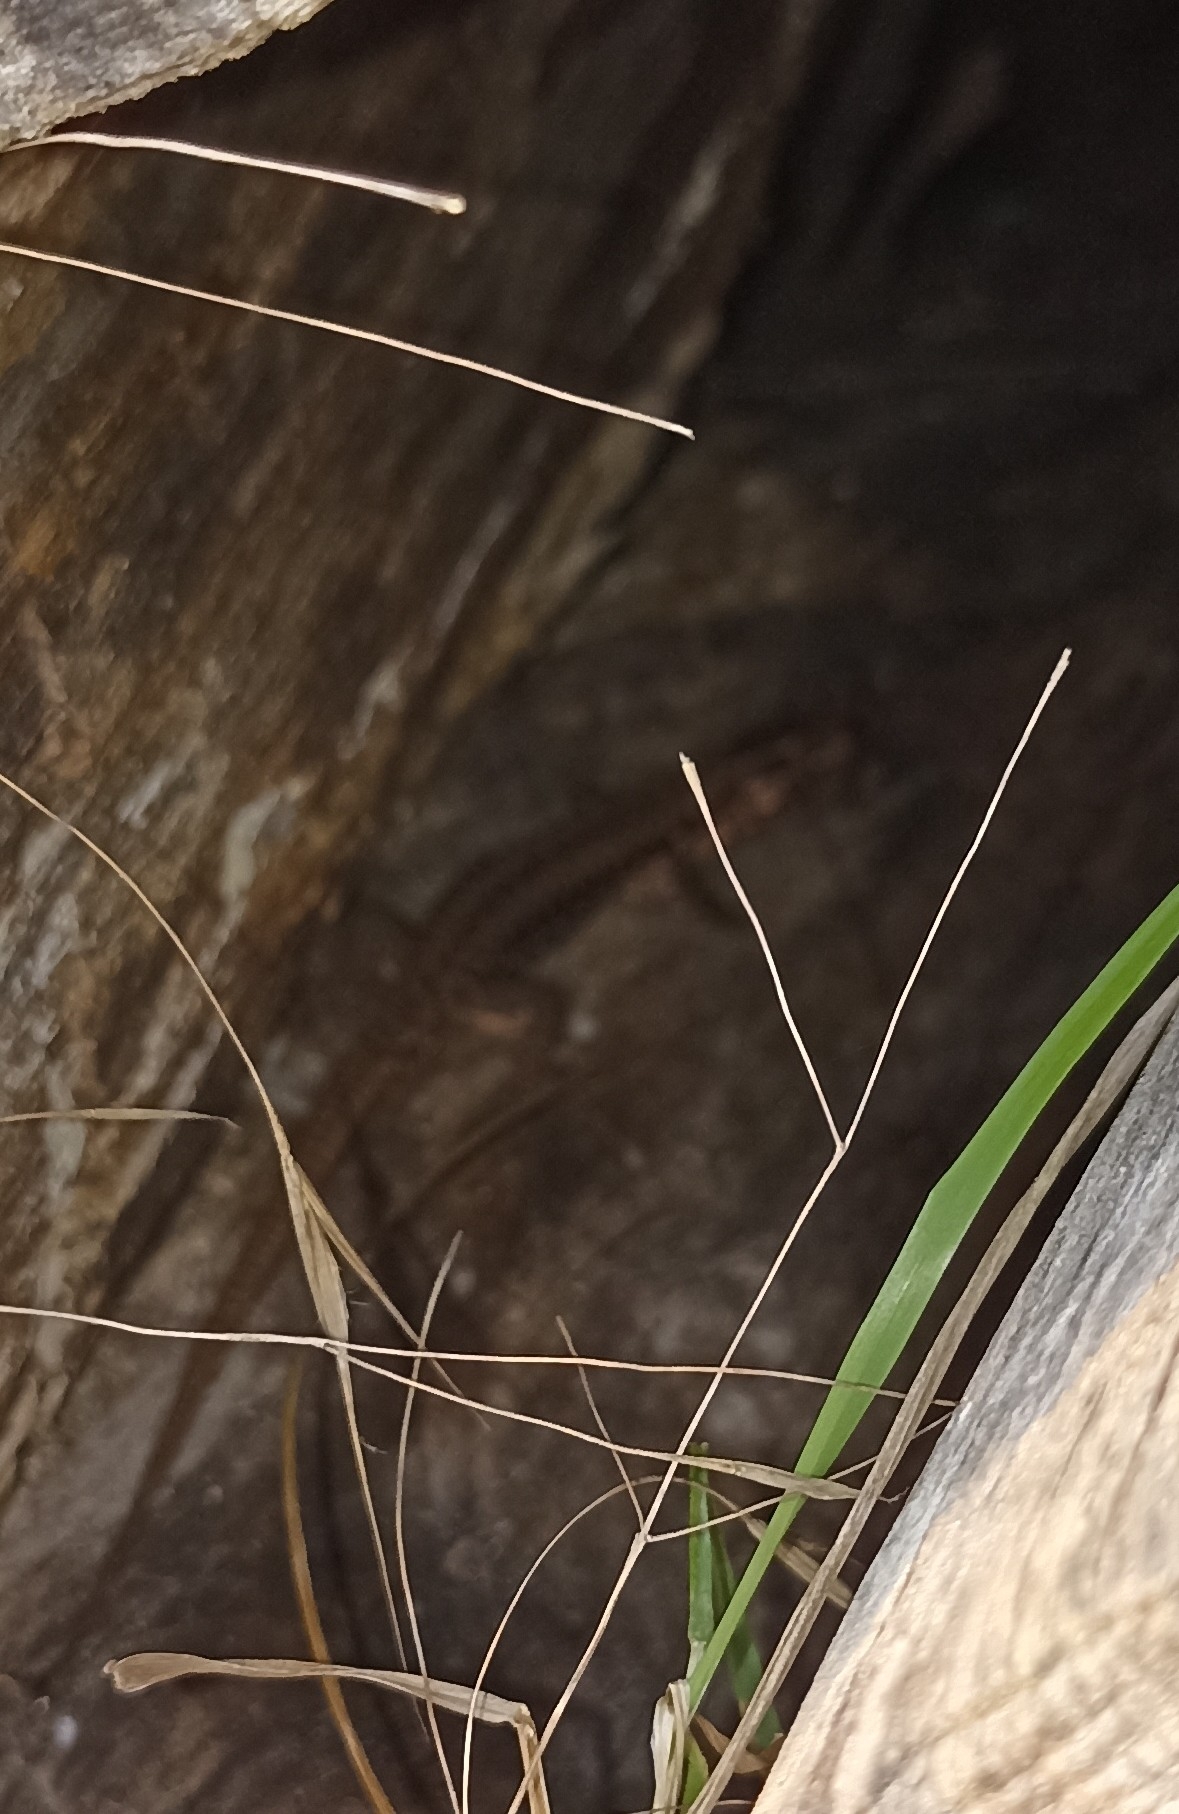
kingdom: Animalia
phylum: Chordata
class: Squamata
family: Lacertidae
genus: Podarcis
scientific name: Podarcis muralis
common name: Common wall lizard
